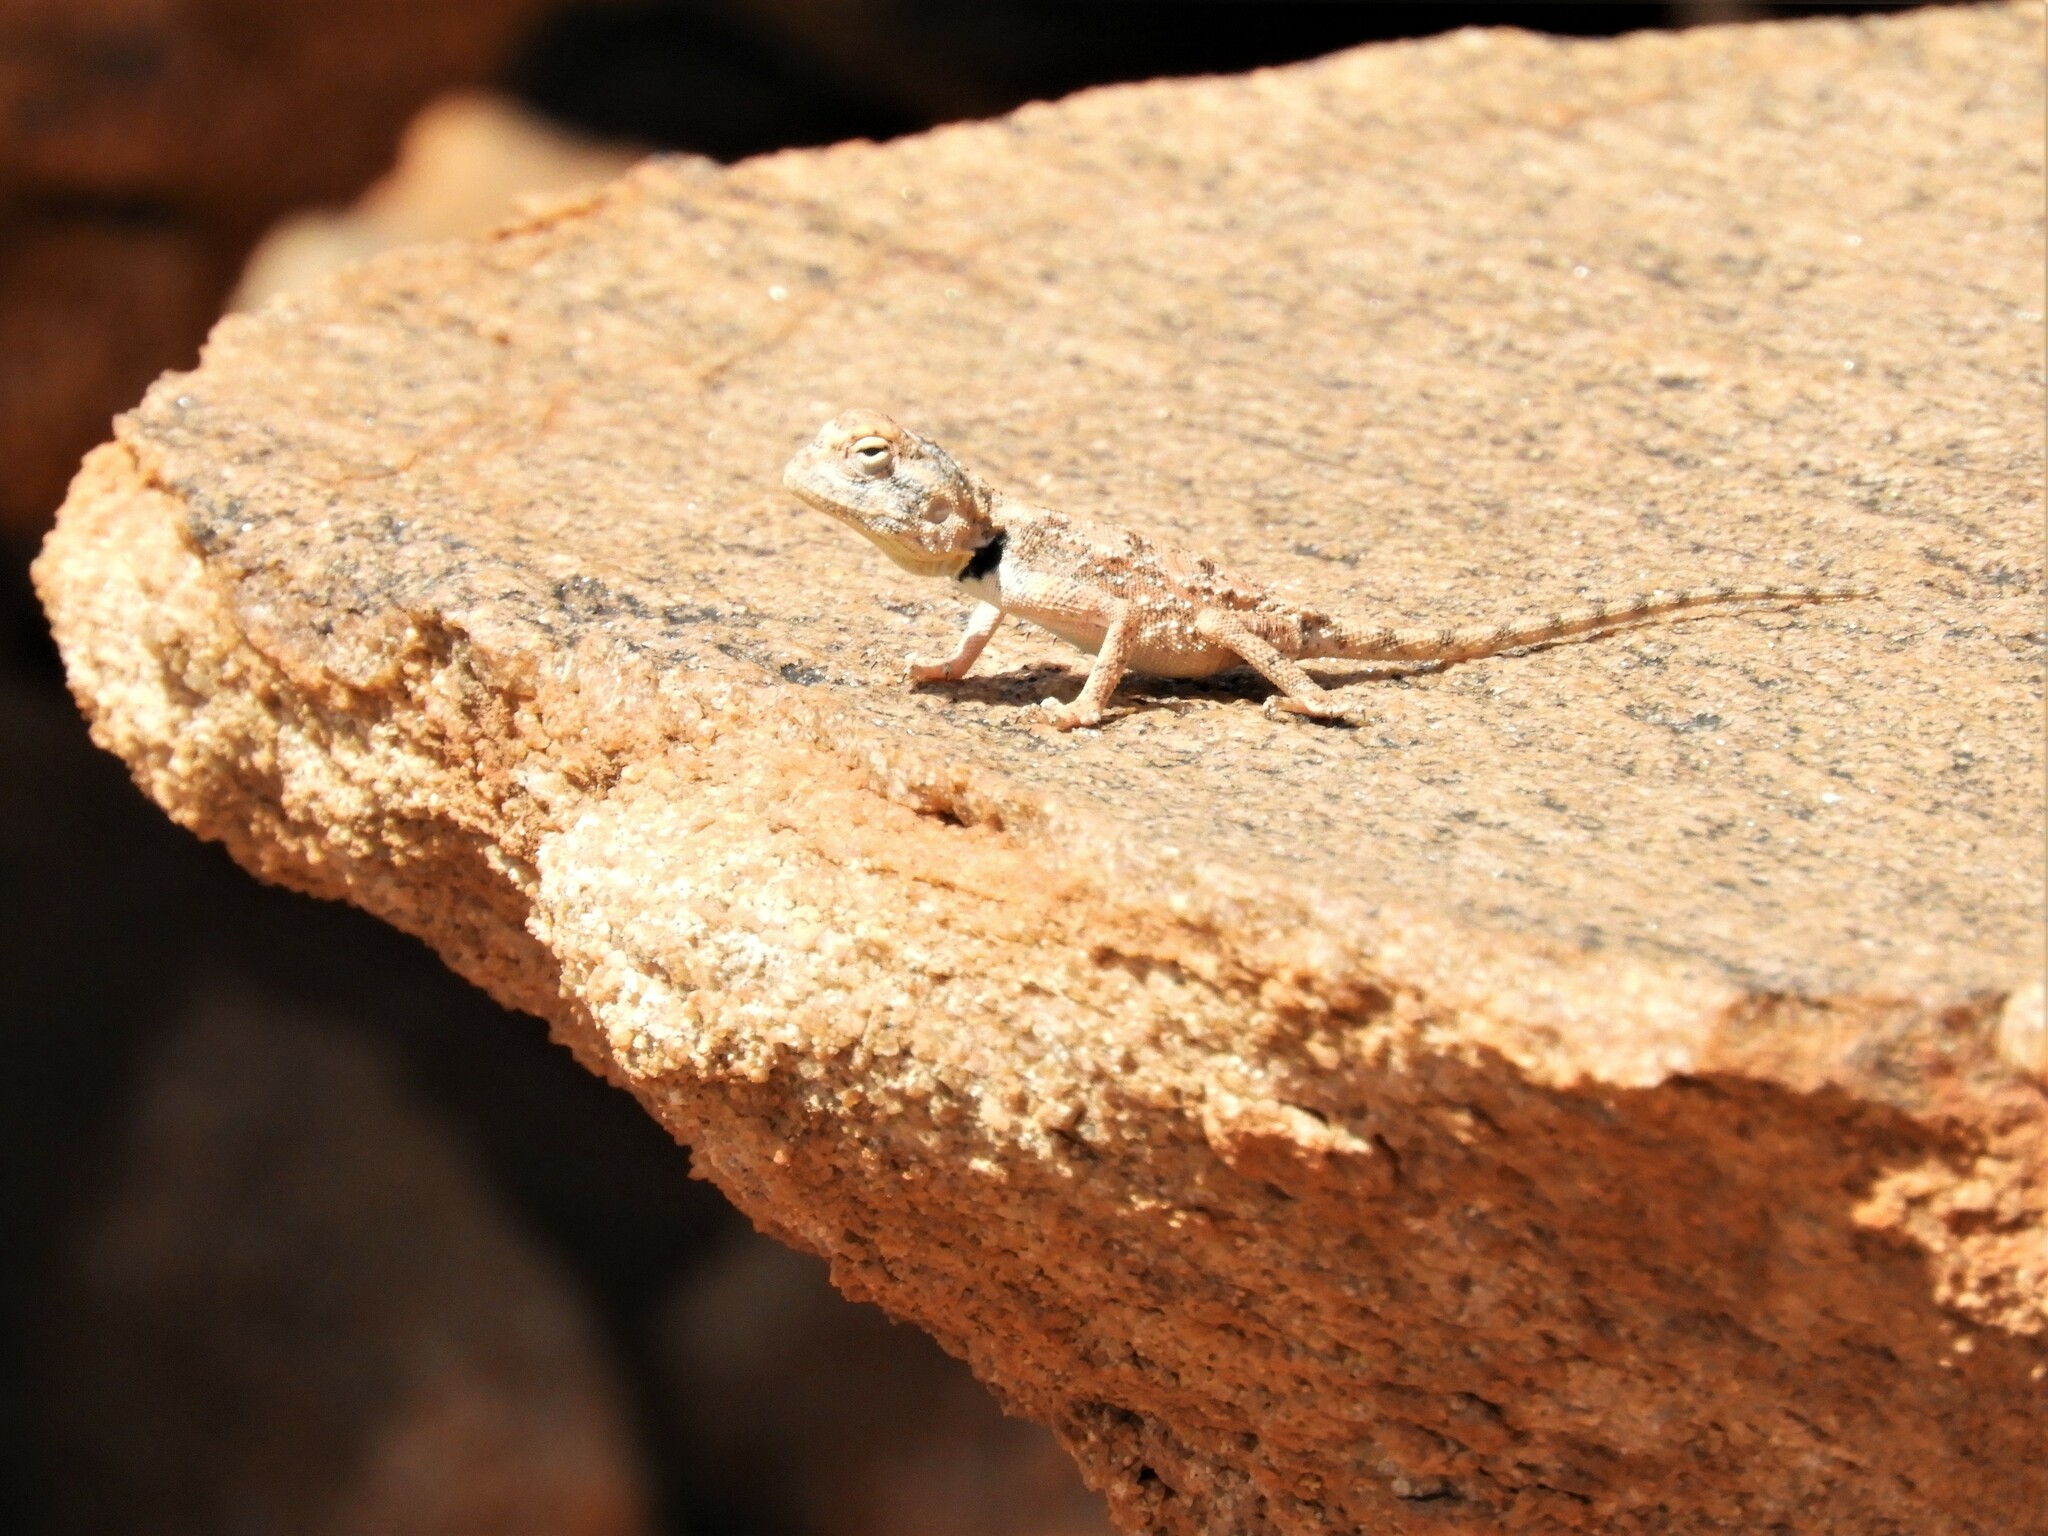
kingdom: Animalia
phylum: Chordata
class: Squamata
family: Agamidae
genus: Agama
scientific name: Agama anchietae
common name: Anchieta's agama
